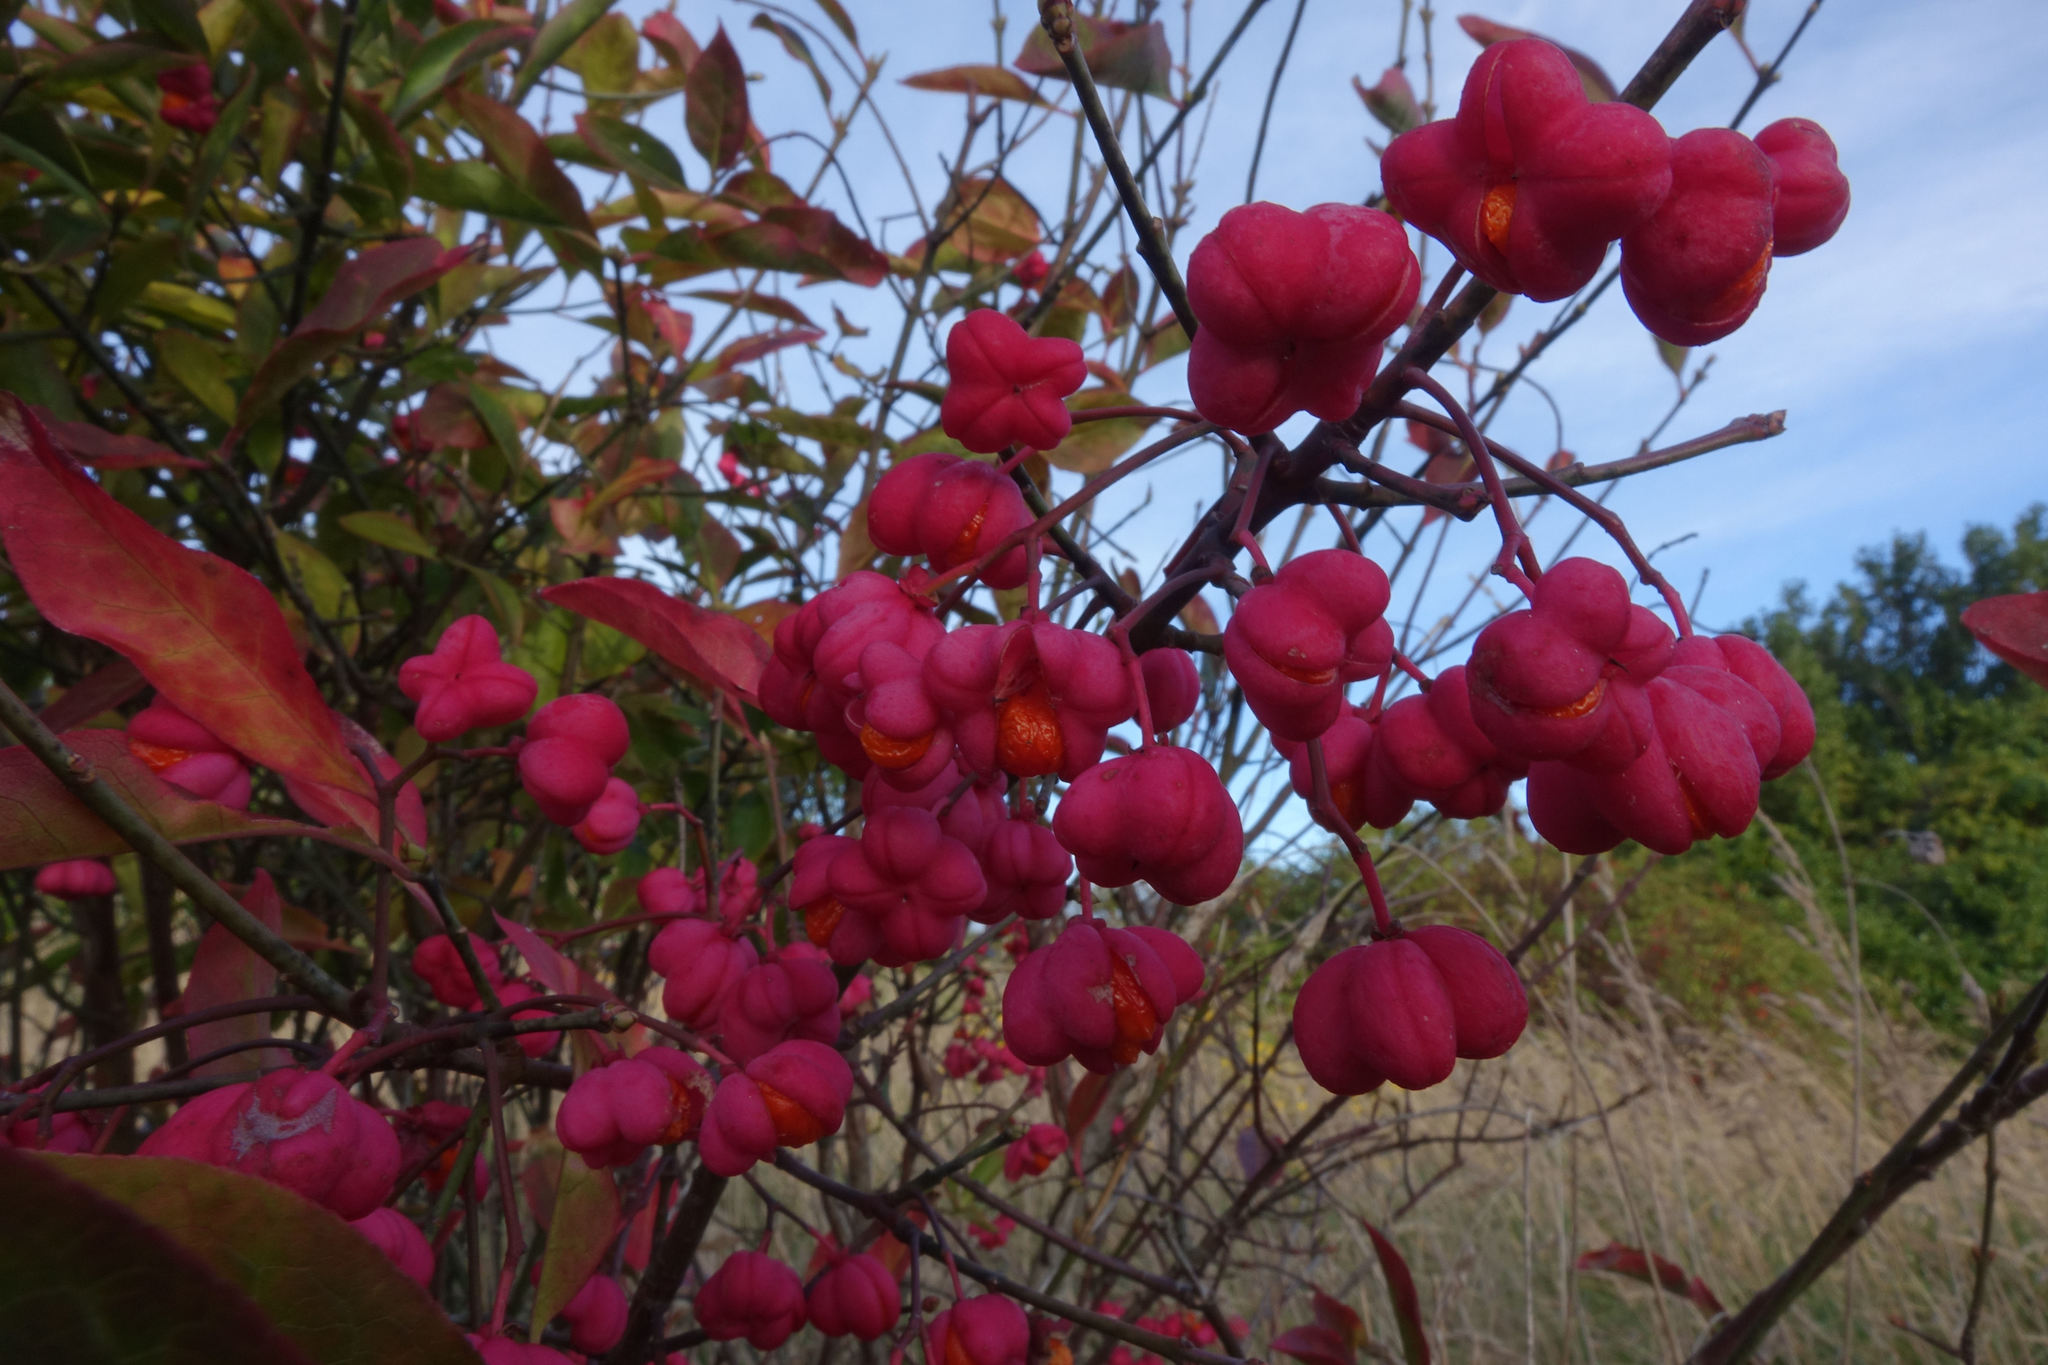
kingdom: Plantae
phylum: Tracheophyta
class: Magnoliopsida
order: Celastrales
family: Celastraceae
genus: Euonymus
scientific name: Euonymus europaeus
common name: Spindle
